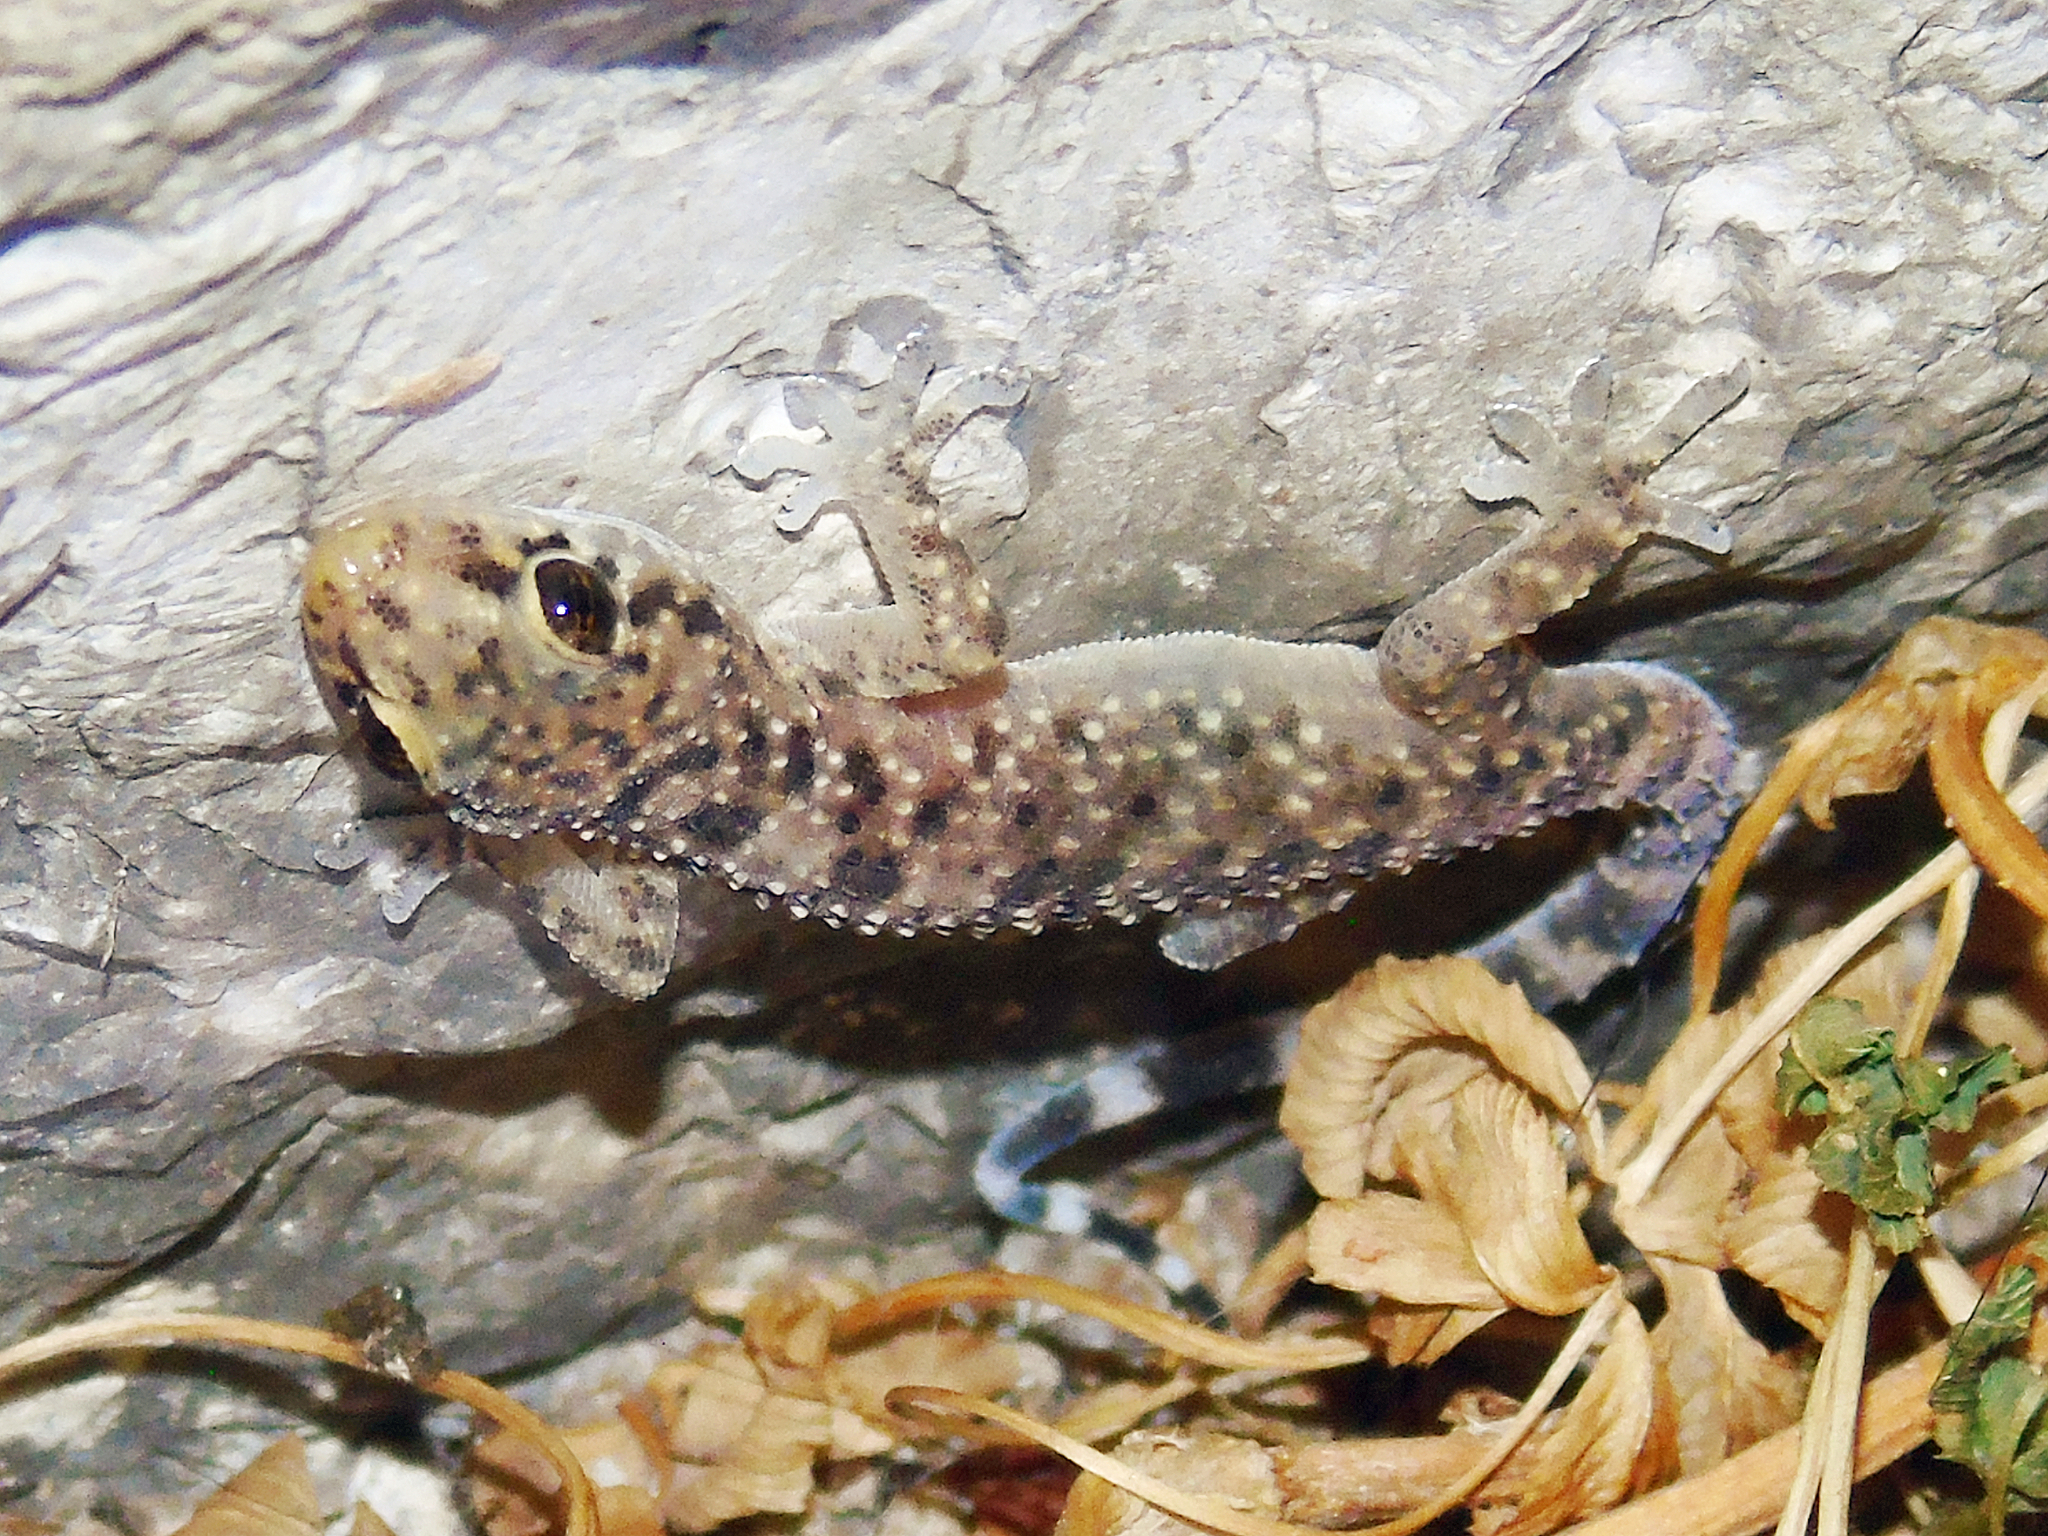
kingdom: Animalia
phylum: Chordata
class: Squamata
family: Gekkonidae
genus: Hemidactylus
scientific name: Hemidactylus turcicus
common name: Turkish gecko
